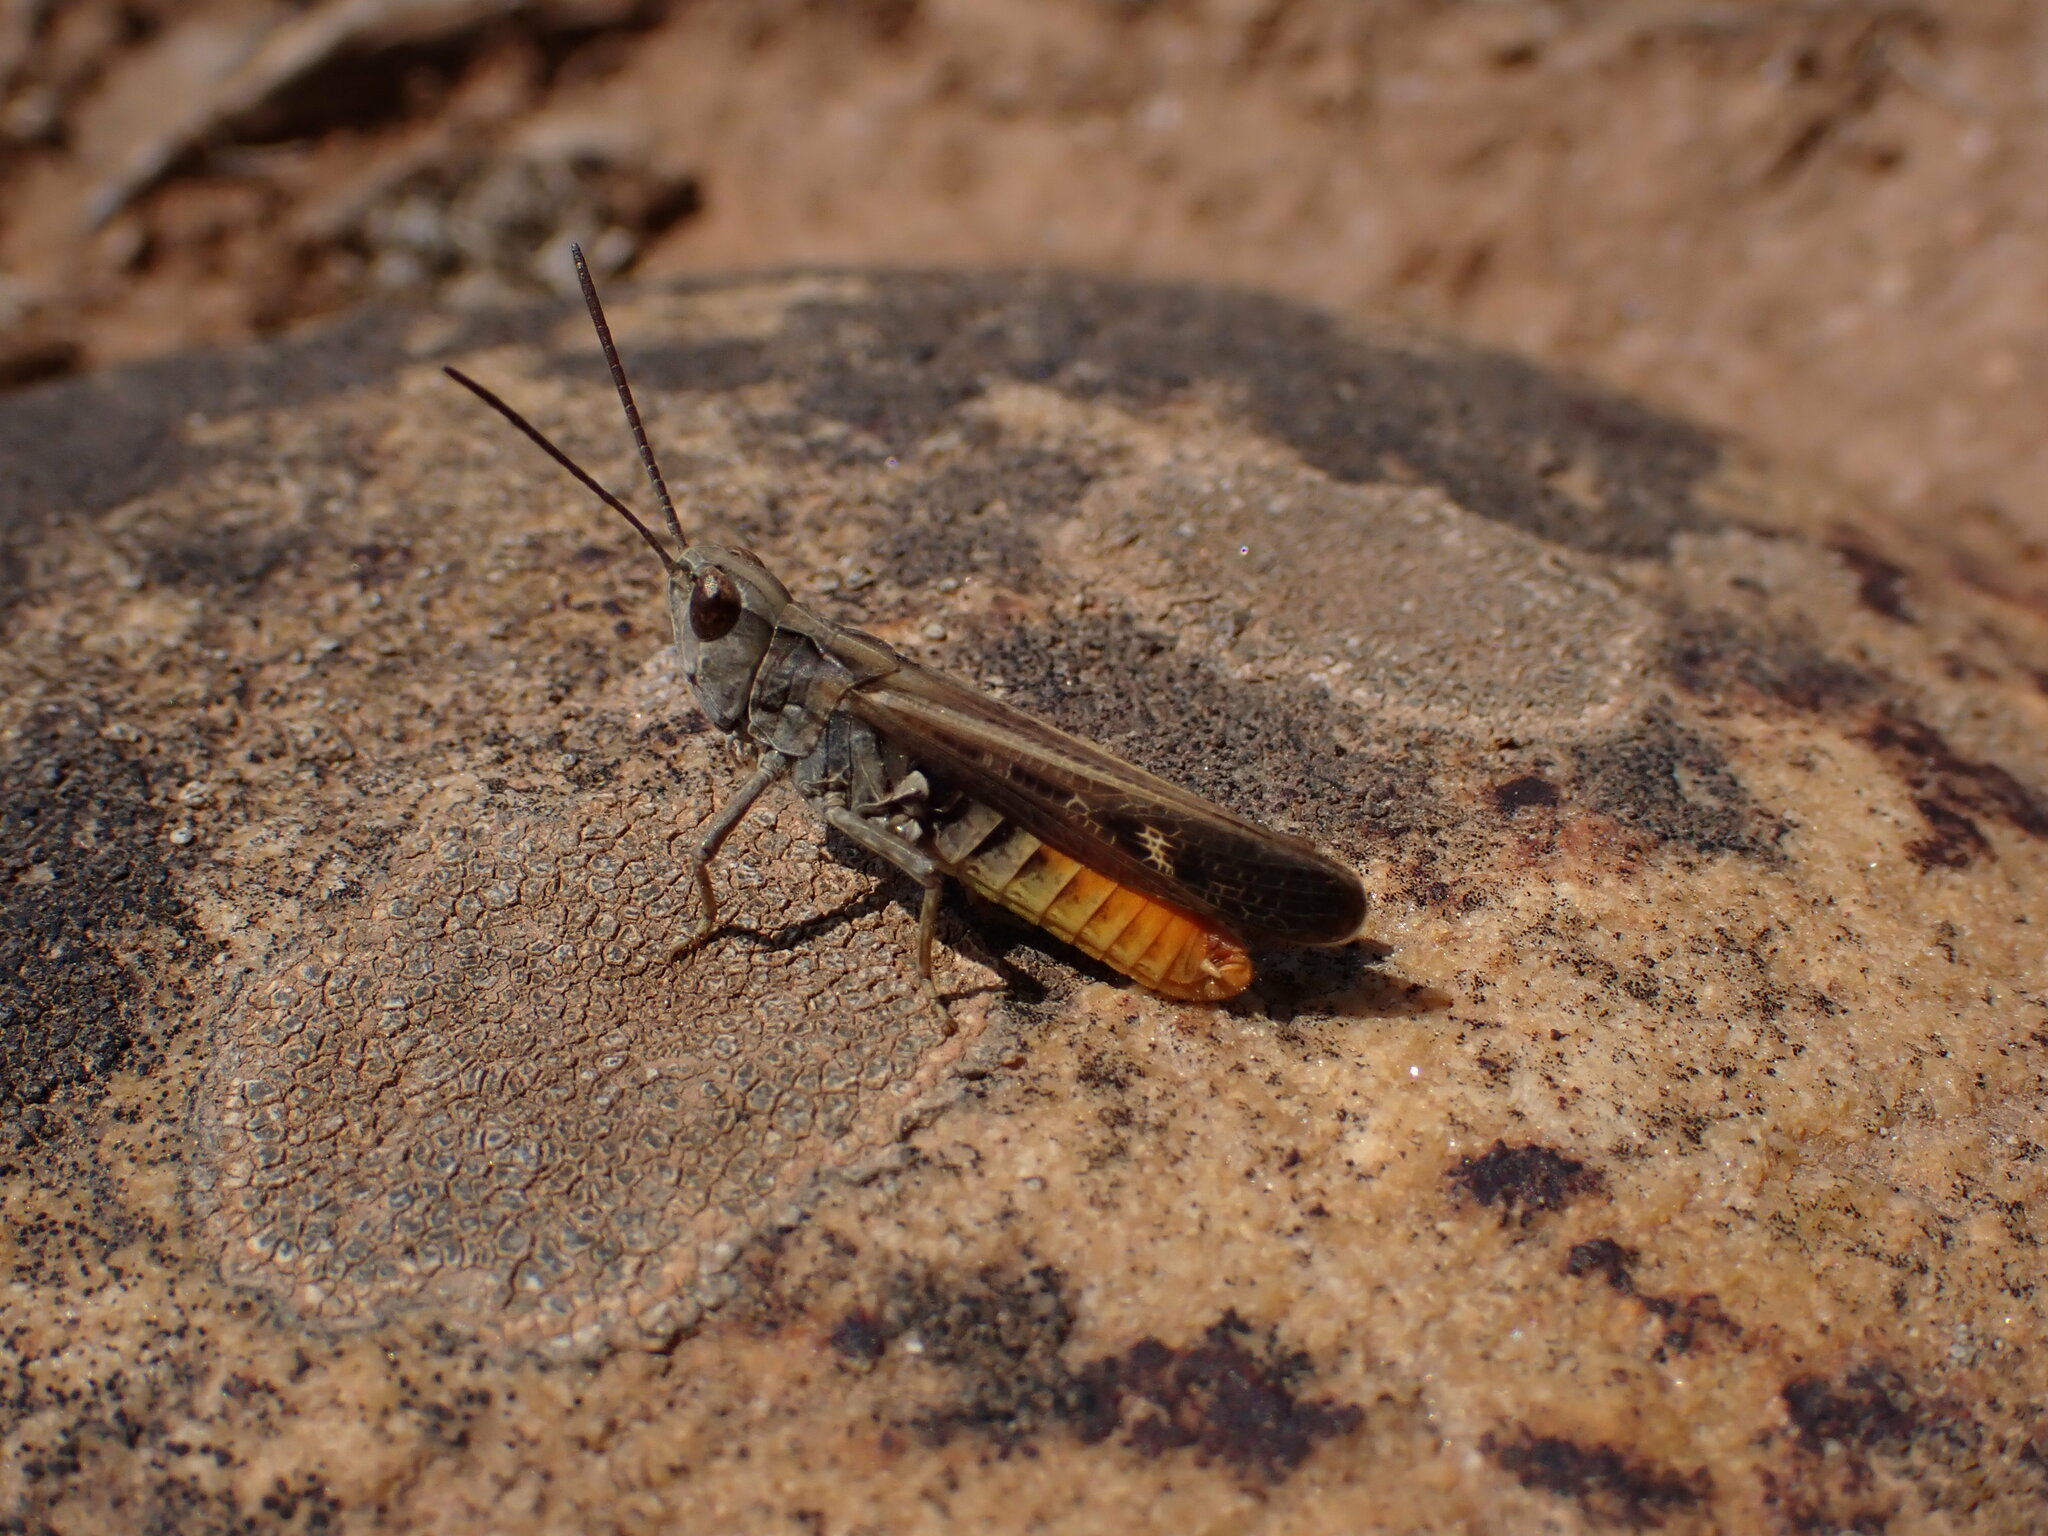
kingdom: Animalia
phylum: Arthropoda
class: Insecta
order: Orthoptera
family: Acrididae
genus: Omocestus
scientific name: Omocestus raymondi
